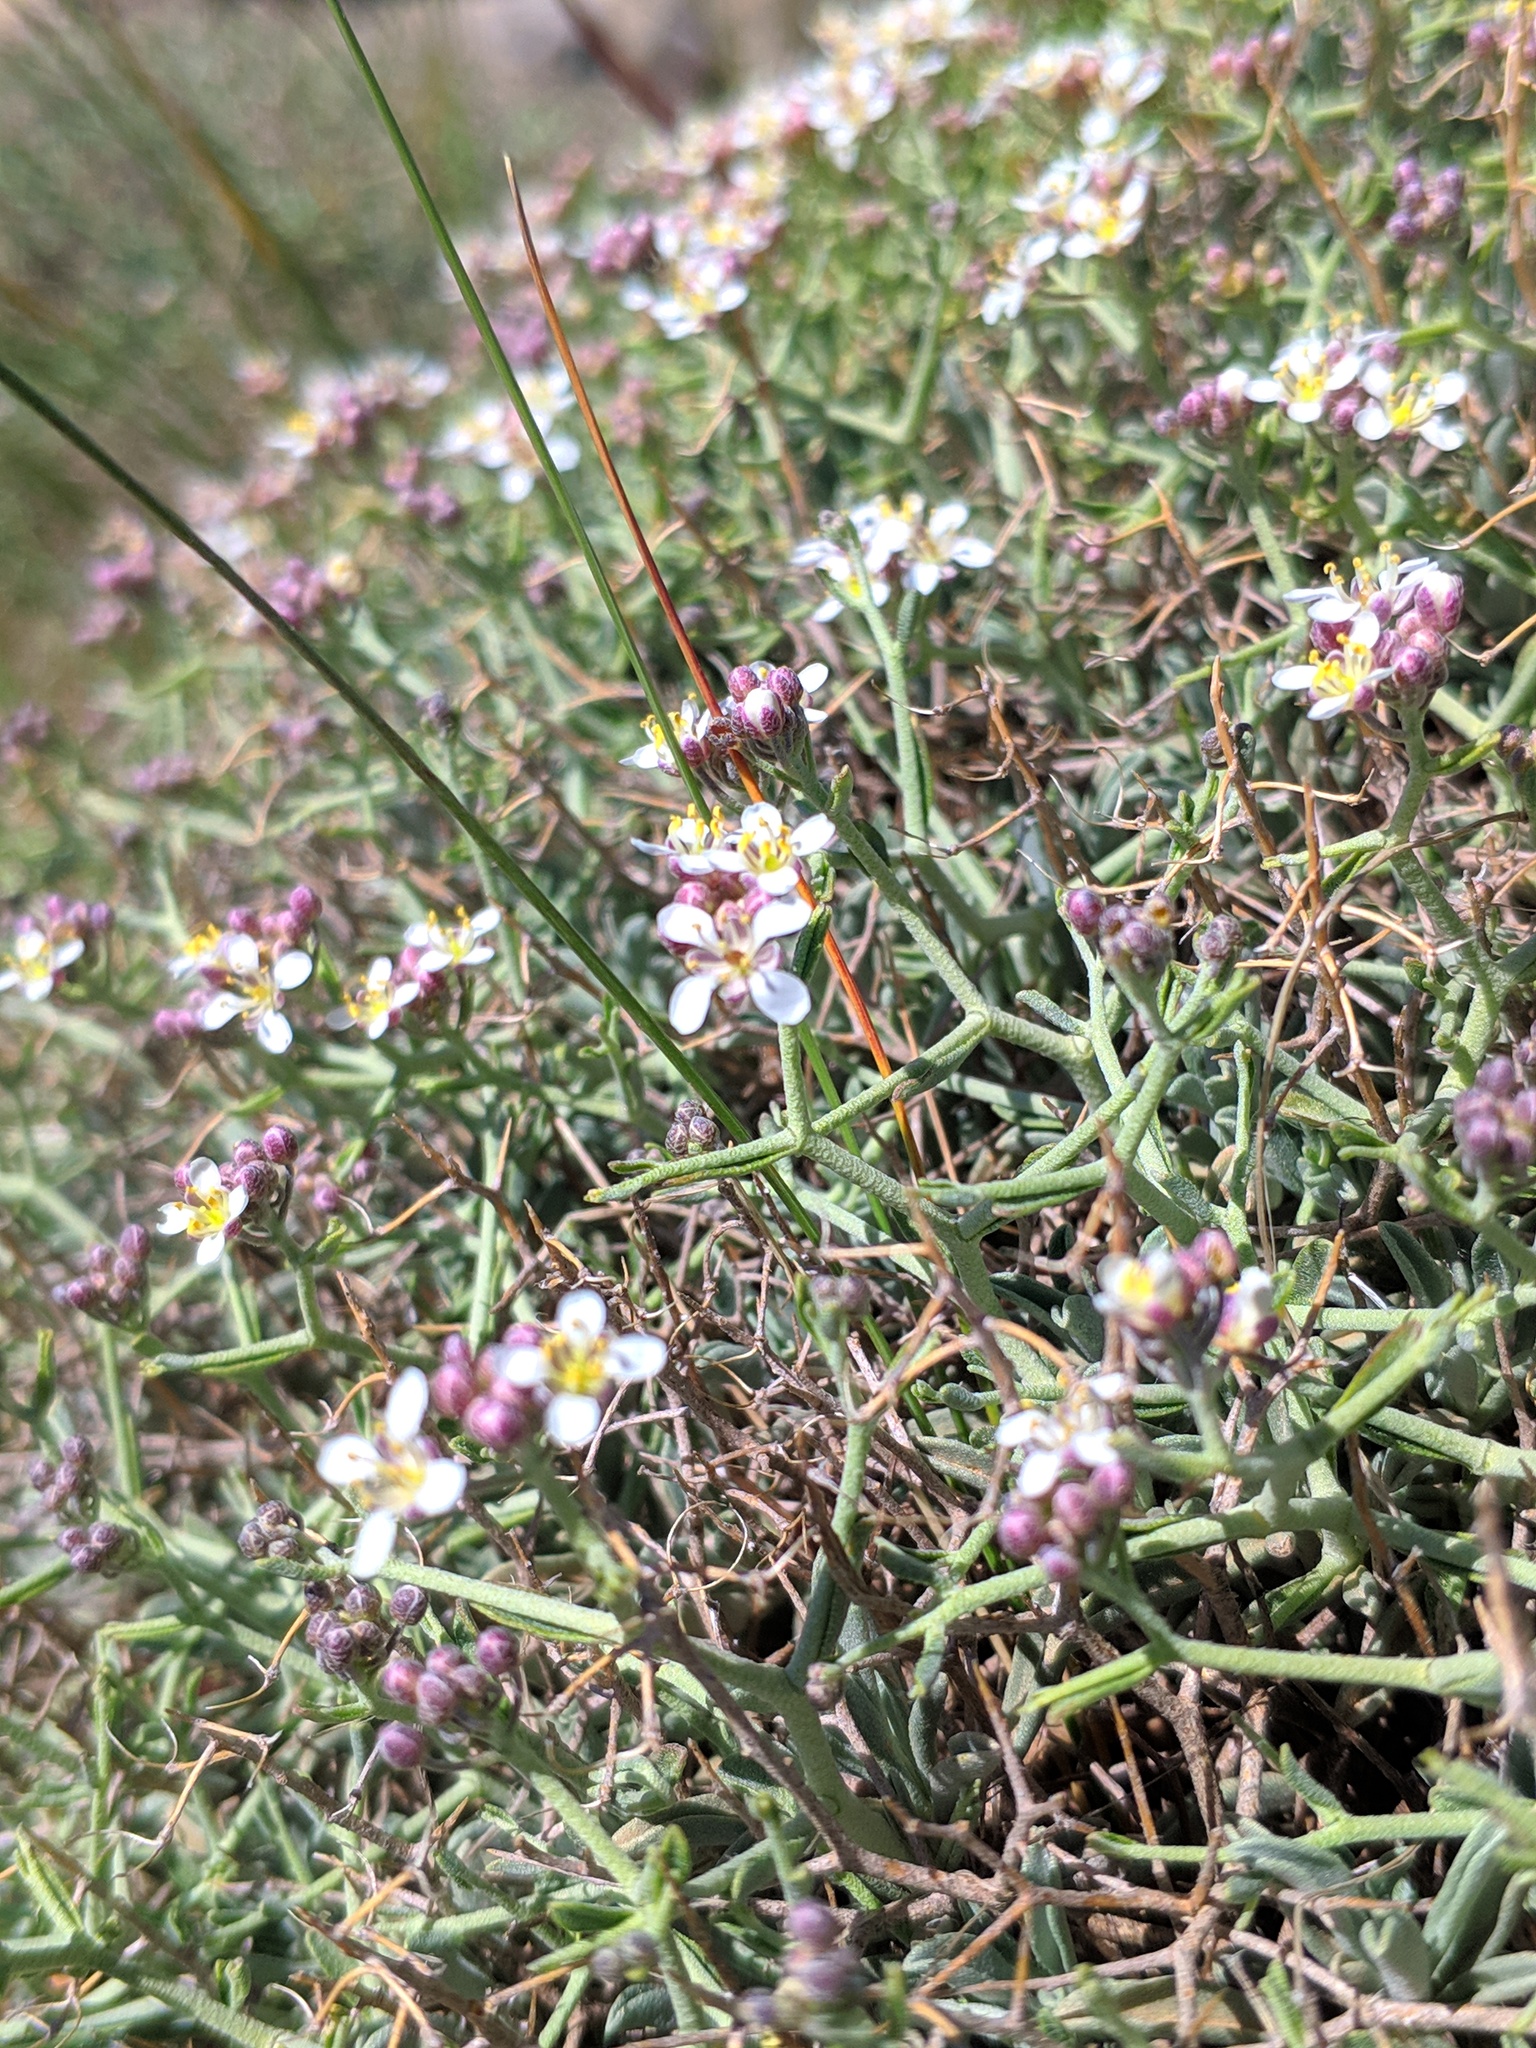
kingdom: Plantae
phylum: Tracheophyta
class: Magnoliopsida
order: Brassicales
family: Brassicaceae
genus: Hormathophylla
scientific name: Hormathophylla spinosa
